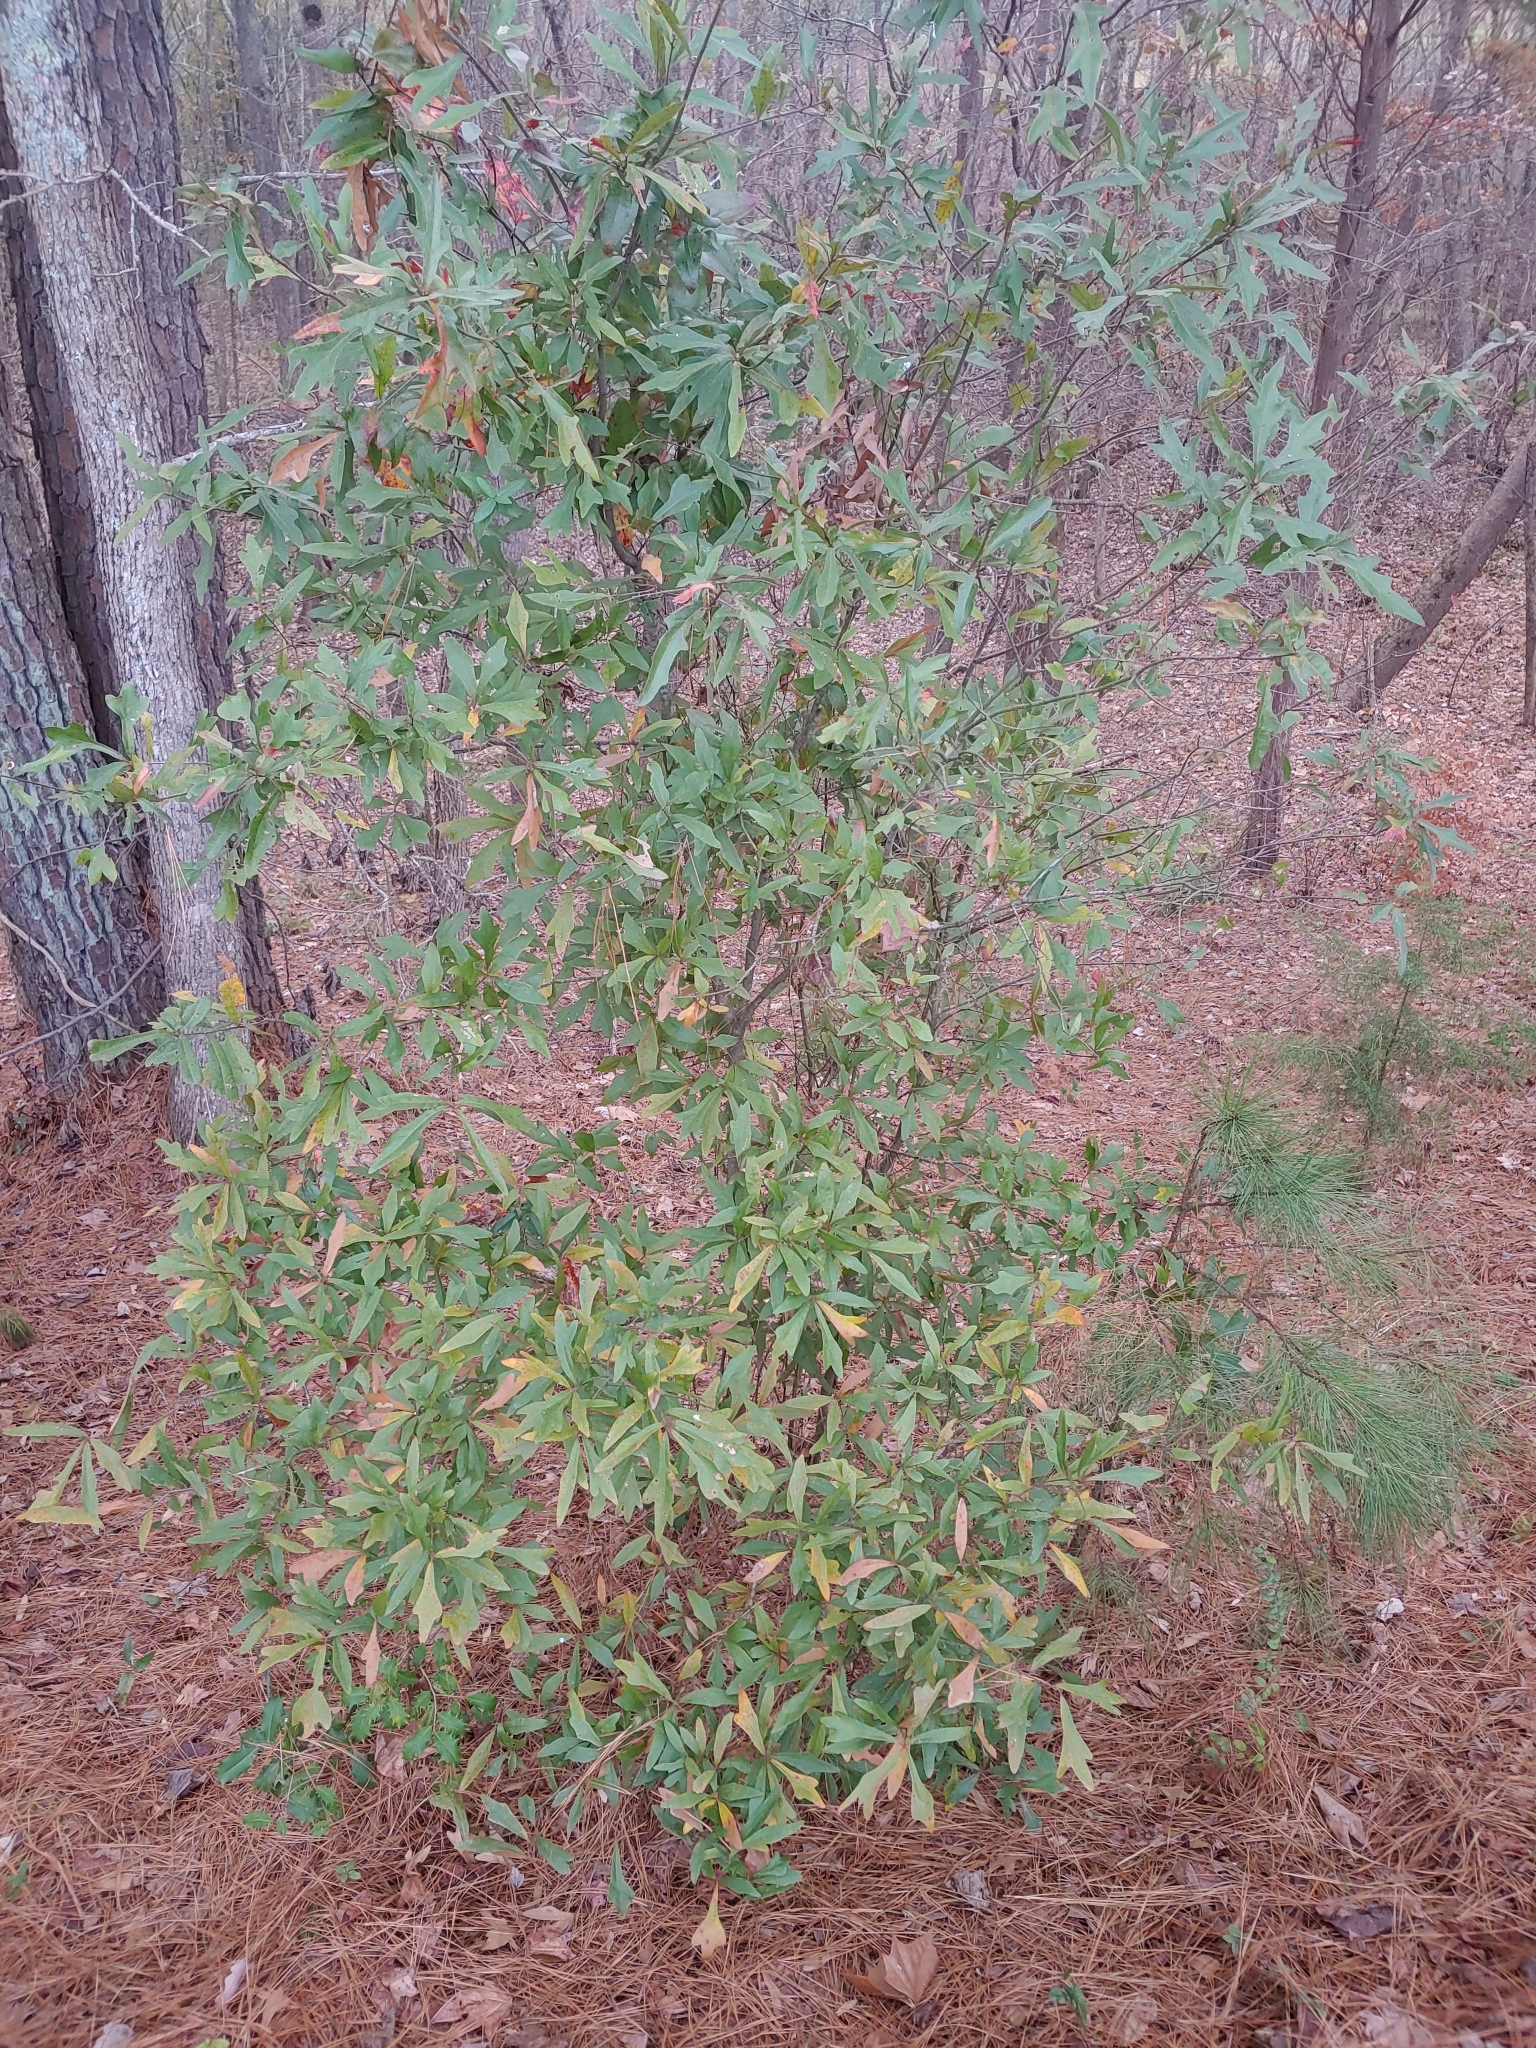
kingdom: Plantae
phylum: Tracheophyta
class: Magnoliopsida
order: Fagales
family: Fagaceae
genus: Quercus
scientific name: Quercus phellos
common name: Willow oak
